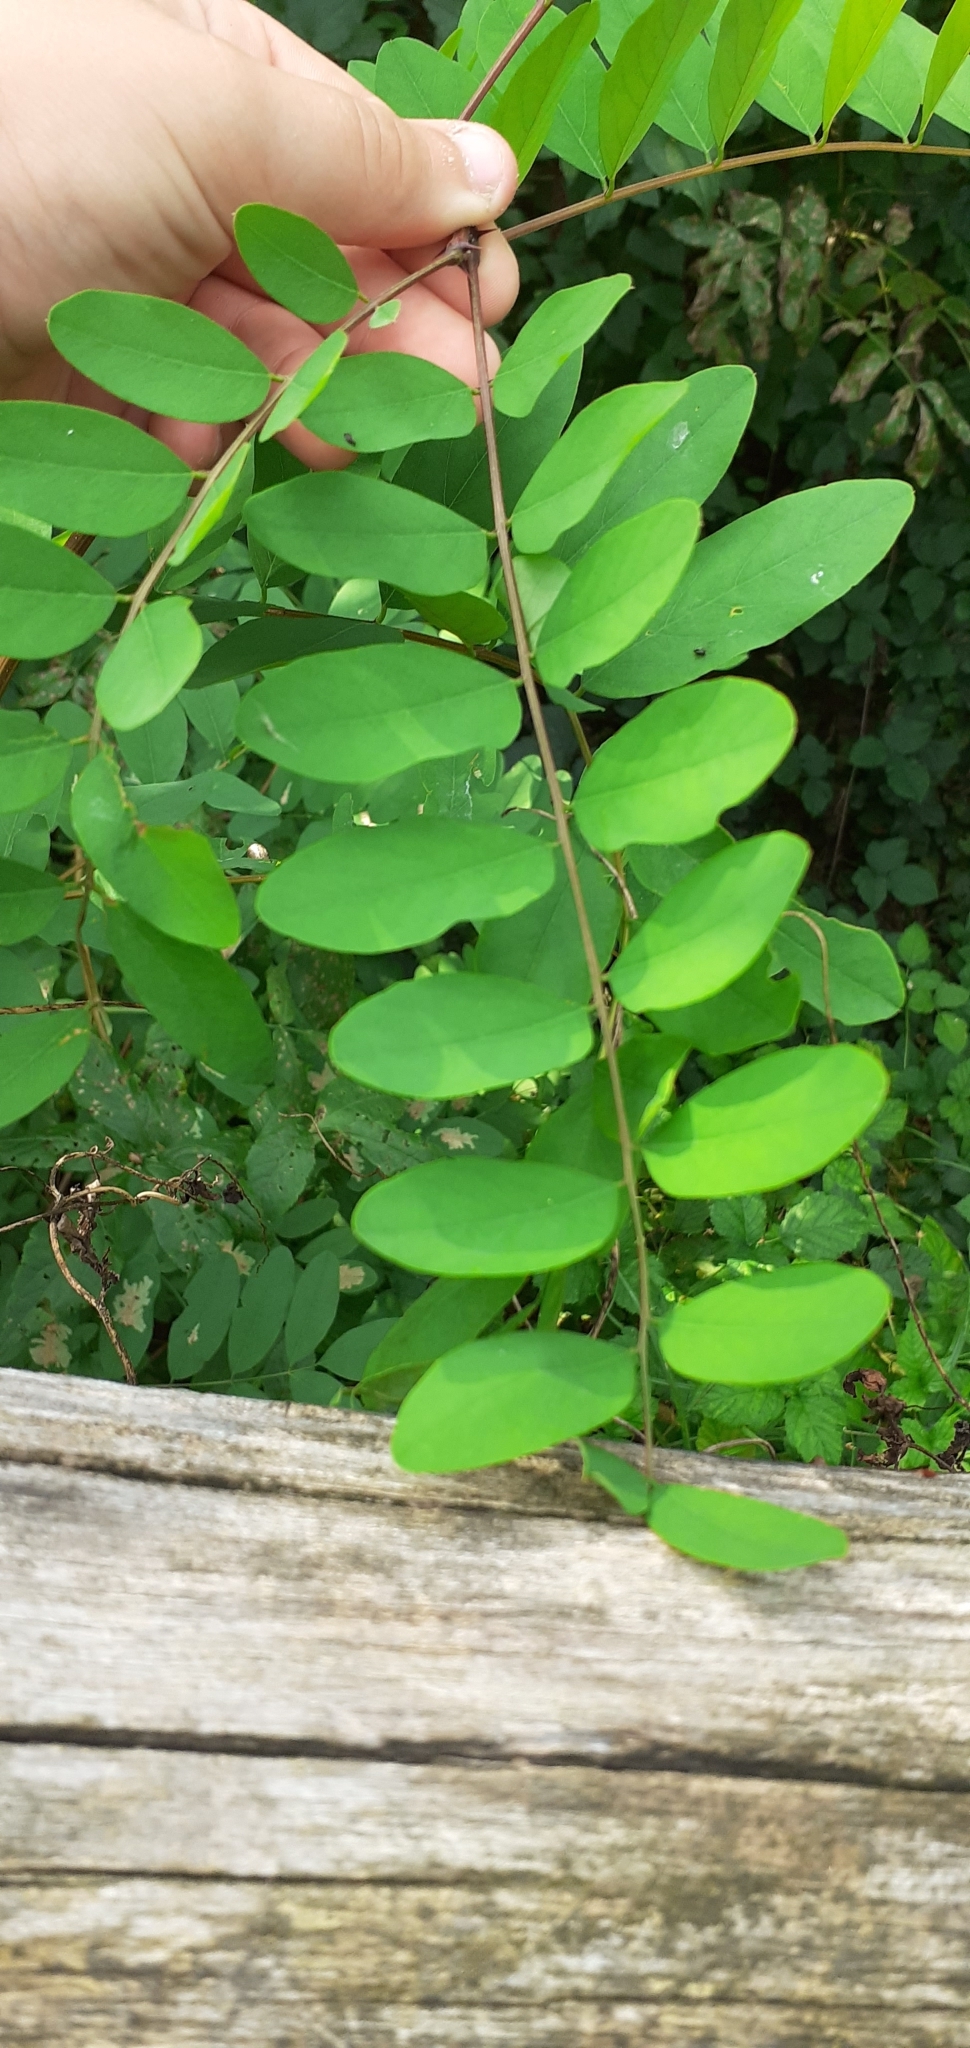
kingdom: Plantae
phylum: Tracheophyta
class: Magnoliopsida
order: Fabales
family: Fabaceae
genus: Robinia
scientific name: Robinia pseudoacacia
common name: Black locust
